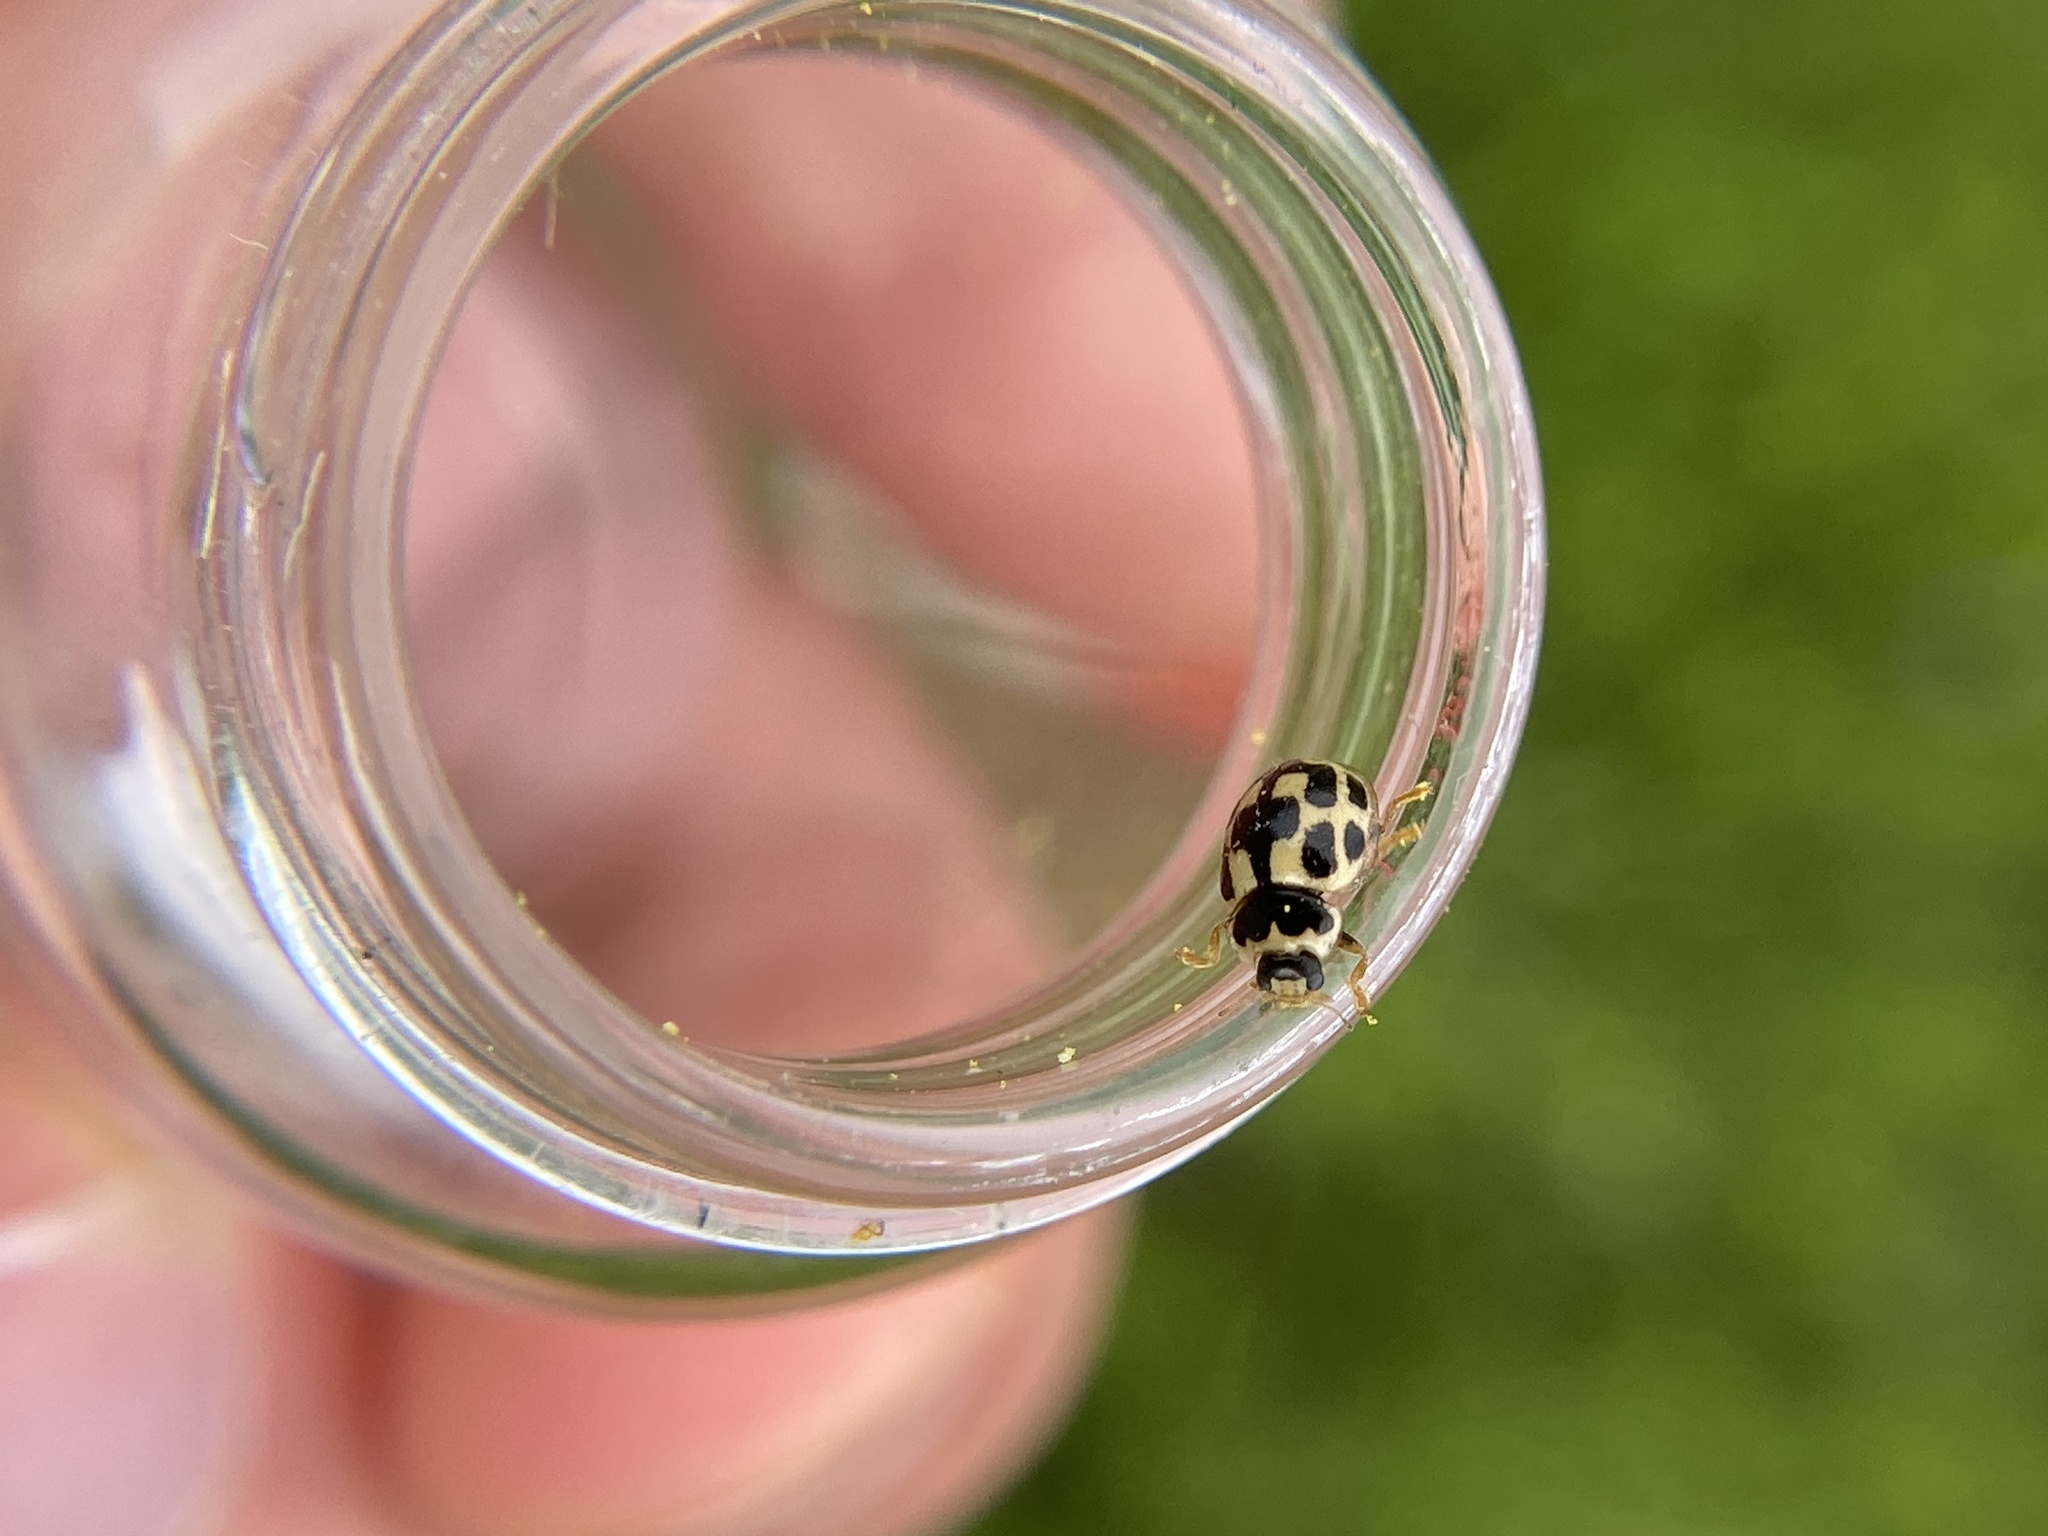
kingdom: Animalia
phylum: Arthropoda
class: Insecta
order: Coleoptera
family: Coccinellidae
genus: Propylaea
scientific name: Propylaea quatuordecimpunctata
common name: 14-spotted ladybird beetle
